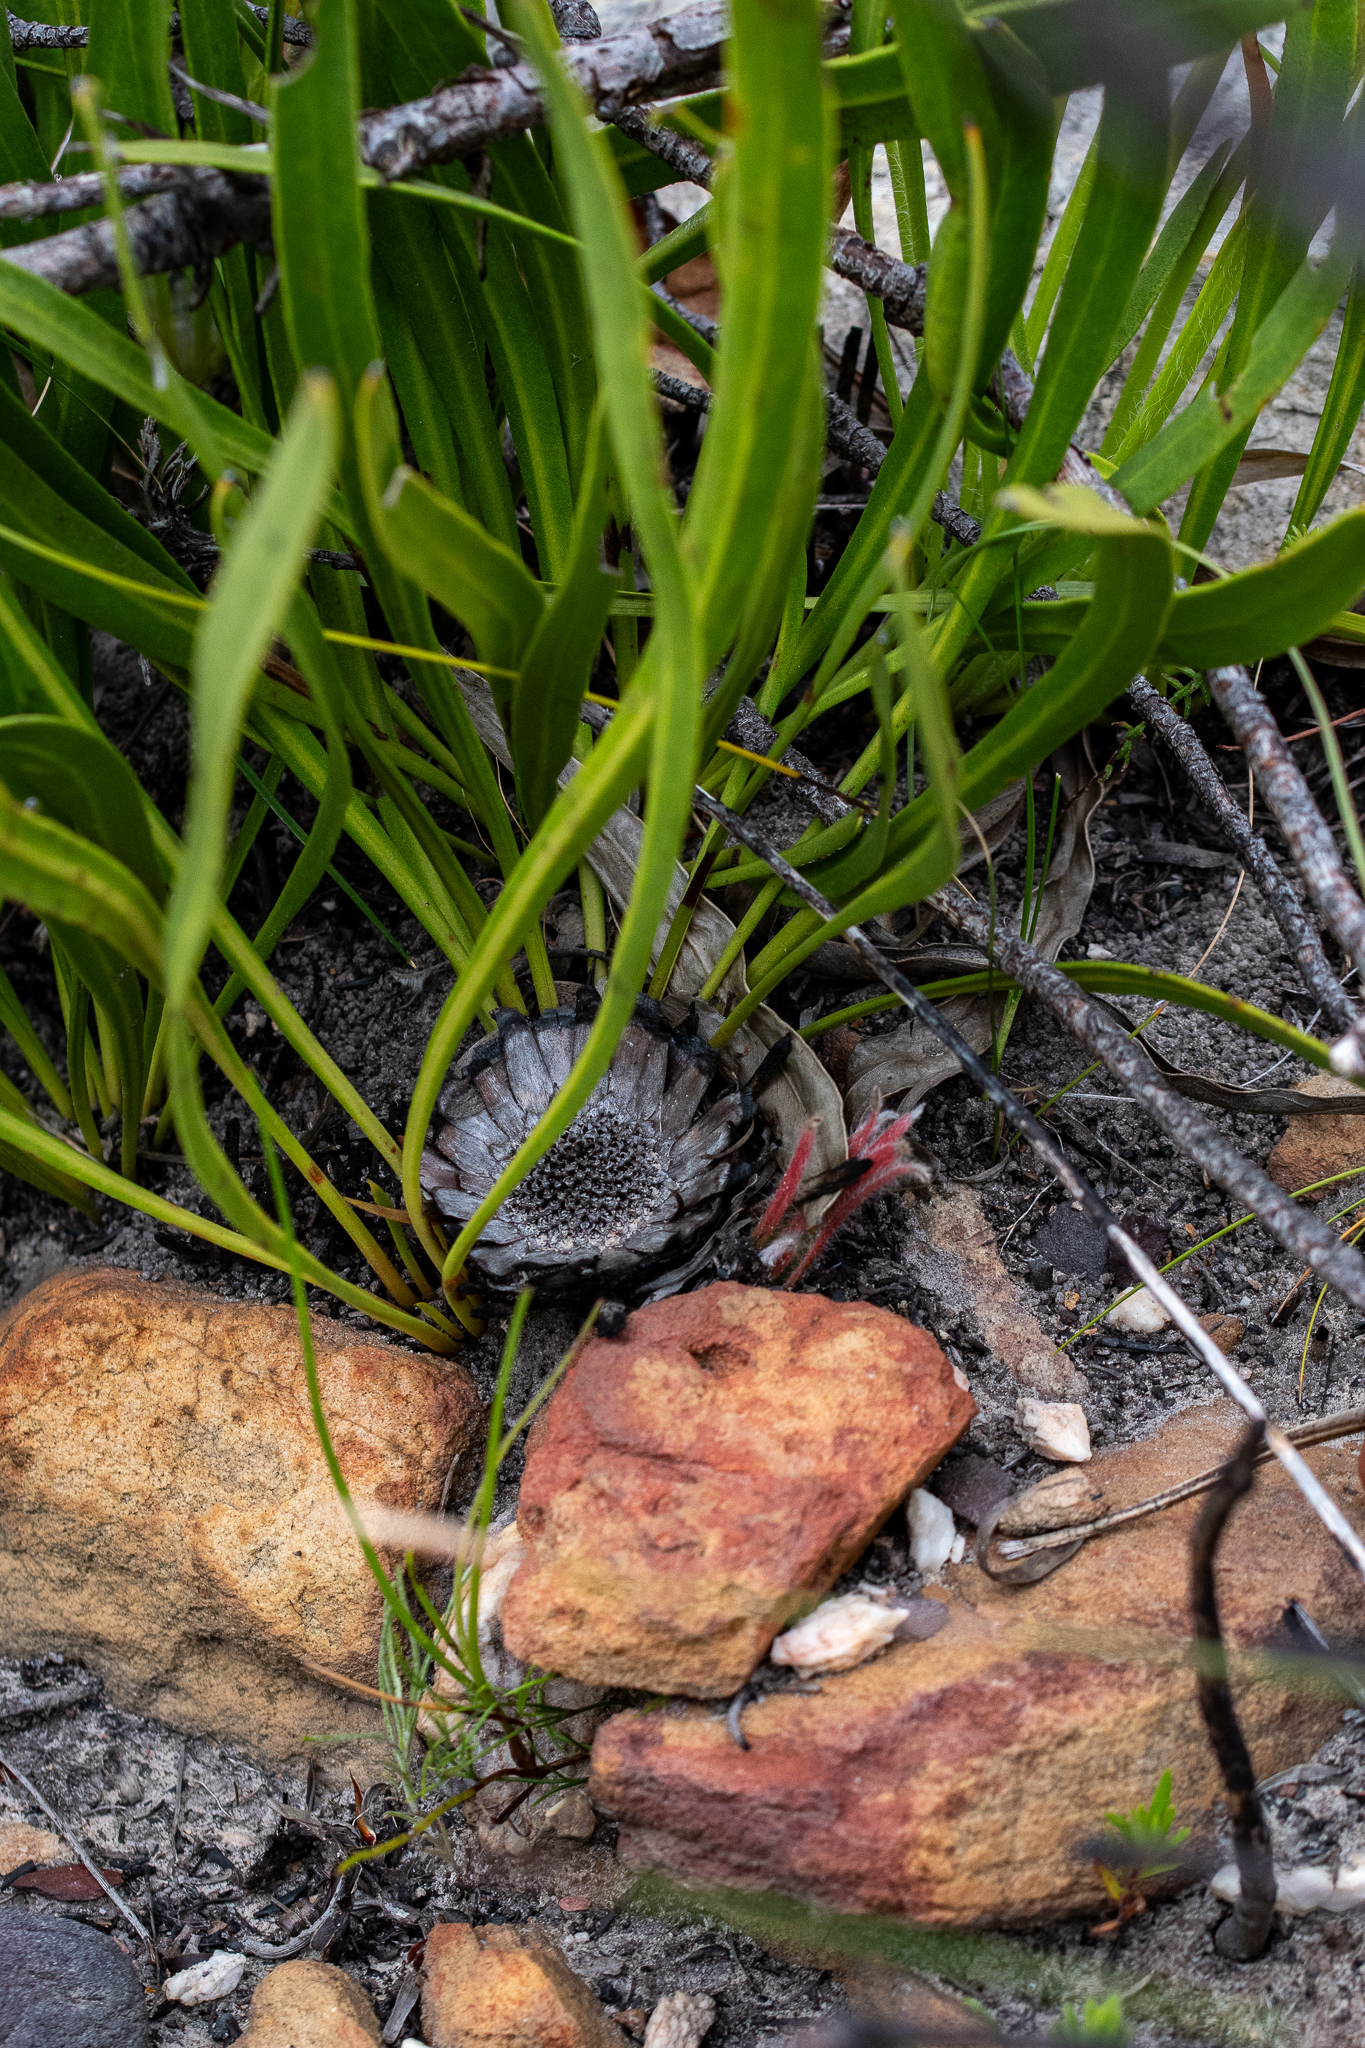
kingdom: Plantae
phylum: Tracheophyta
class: Magnoliopsida
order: Proteales
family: Proteaceae
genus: Protea
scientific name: Protea scabra
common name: Sandpaper-leaf sugarbush
